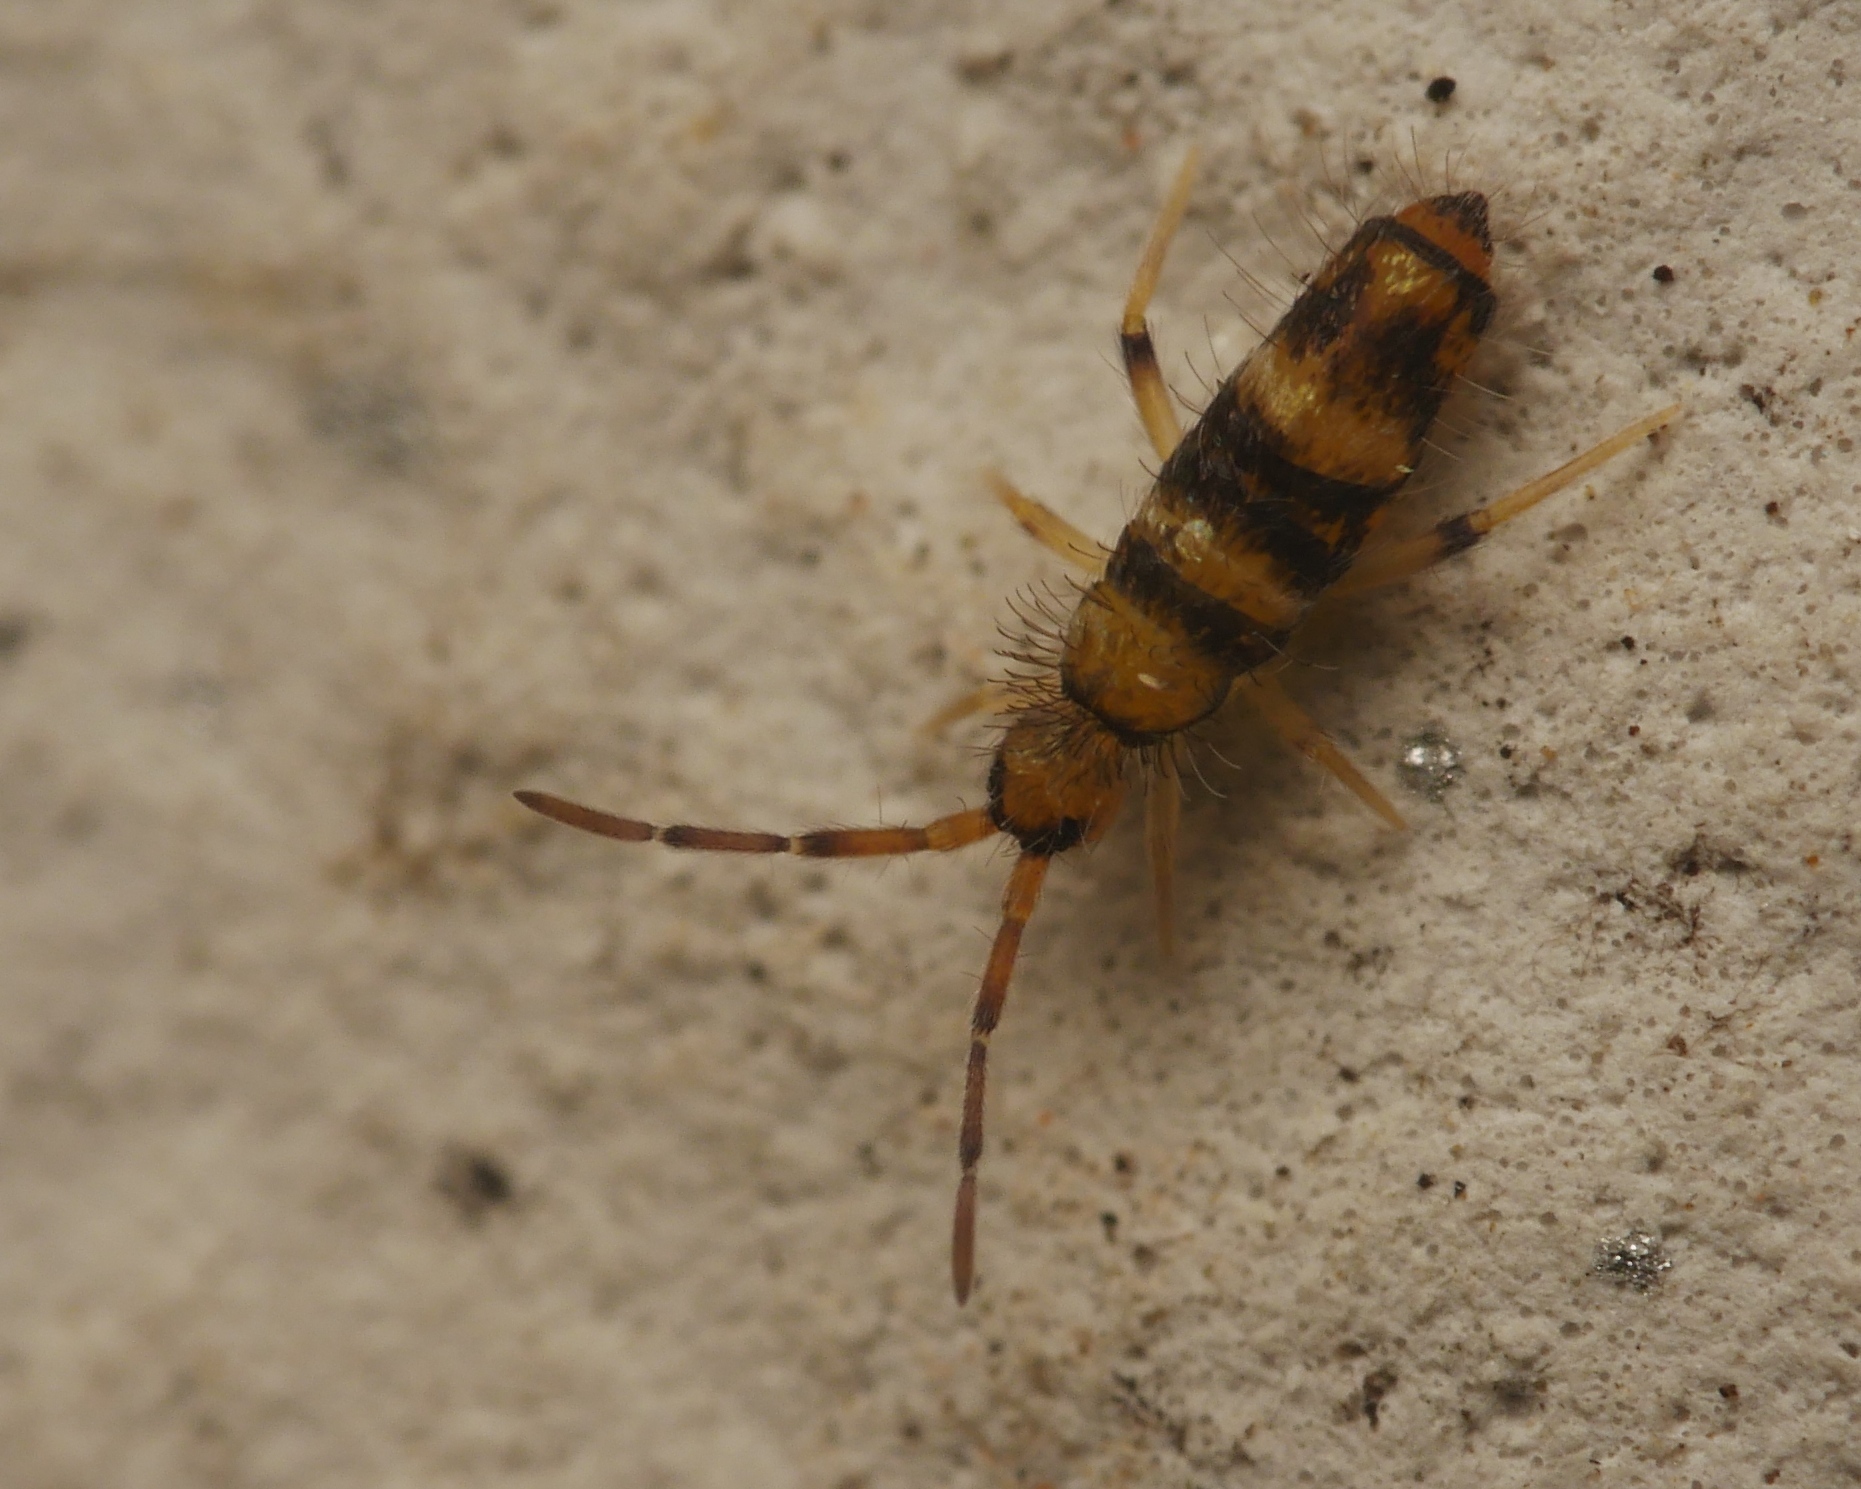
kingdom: Animalia
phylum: Arthropoda
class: Collembola
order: Entomobryomorpha
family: Entomobryidae
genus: Willowsia
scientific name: Willowsia platani
